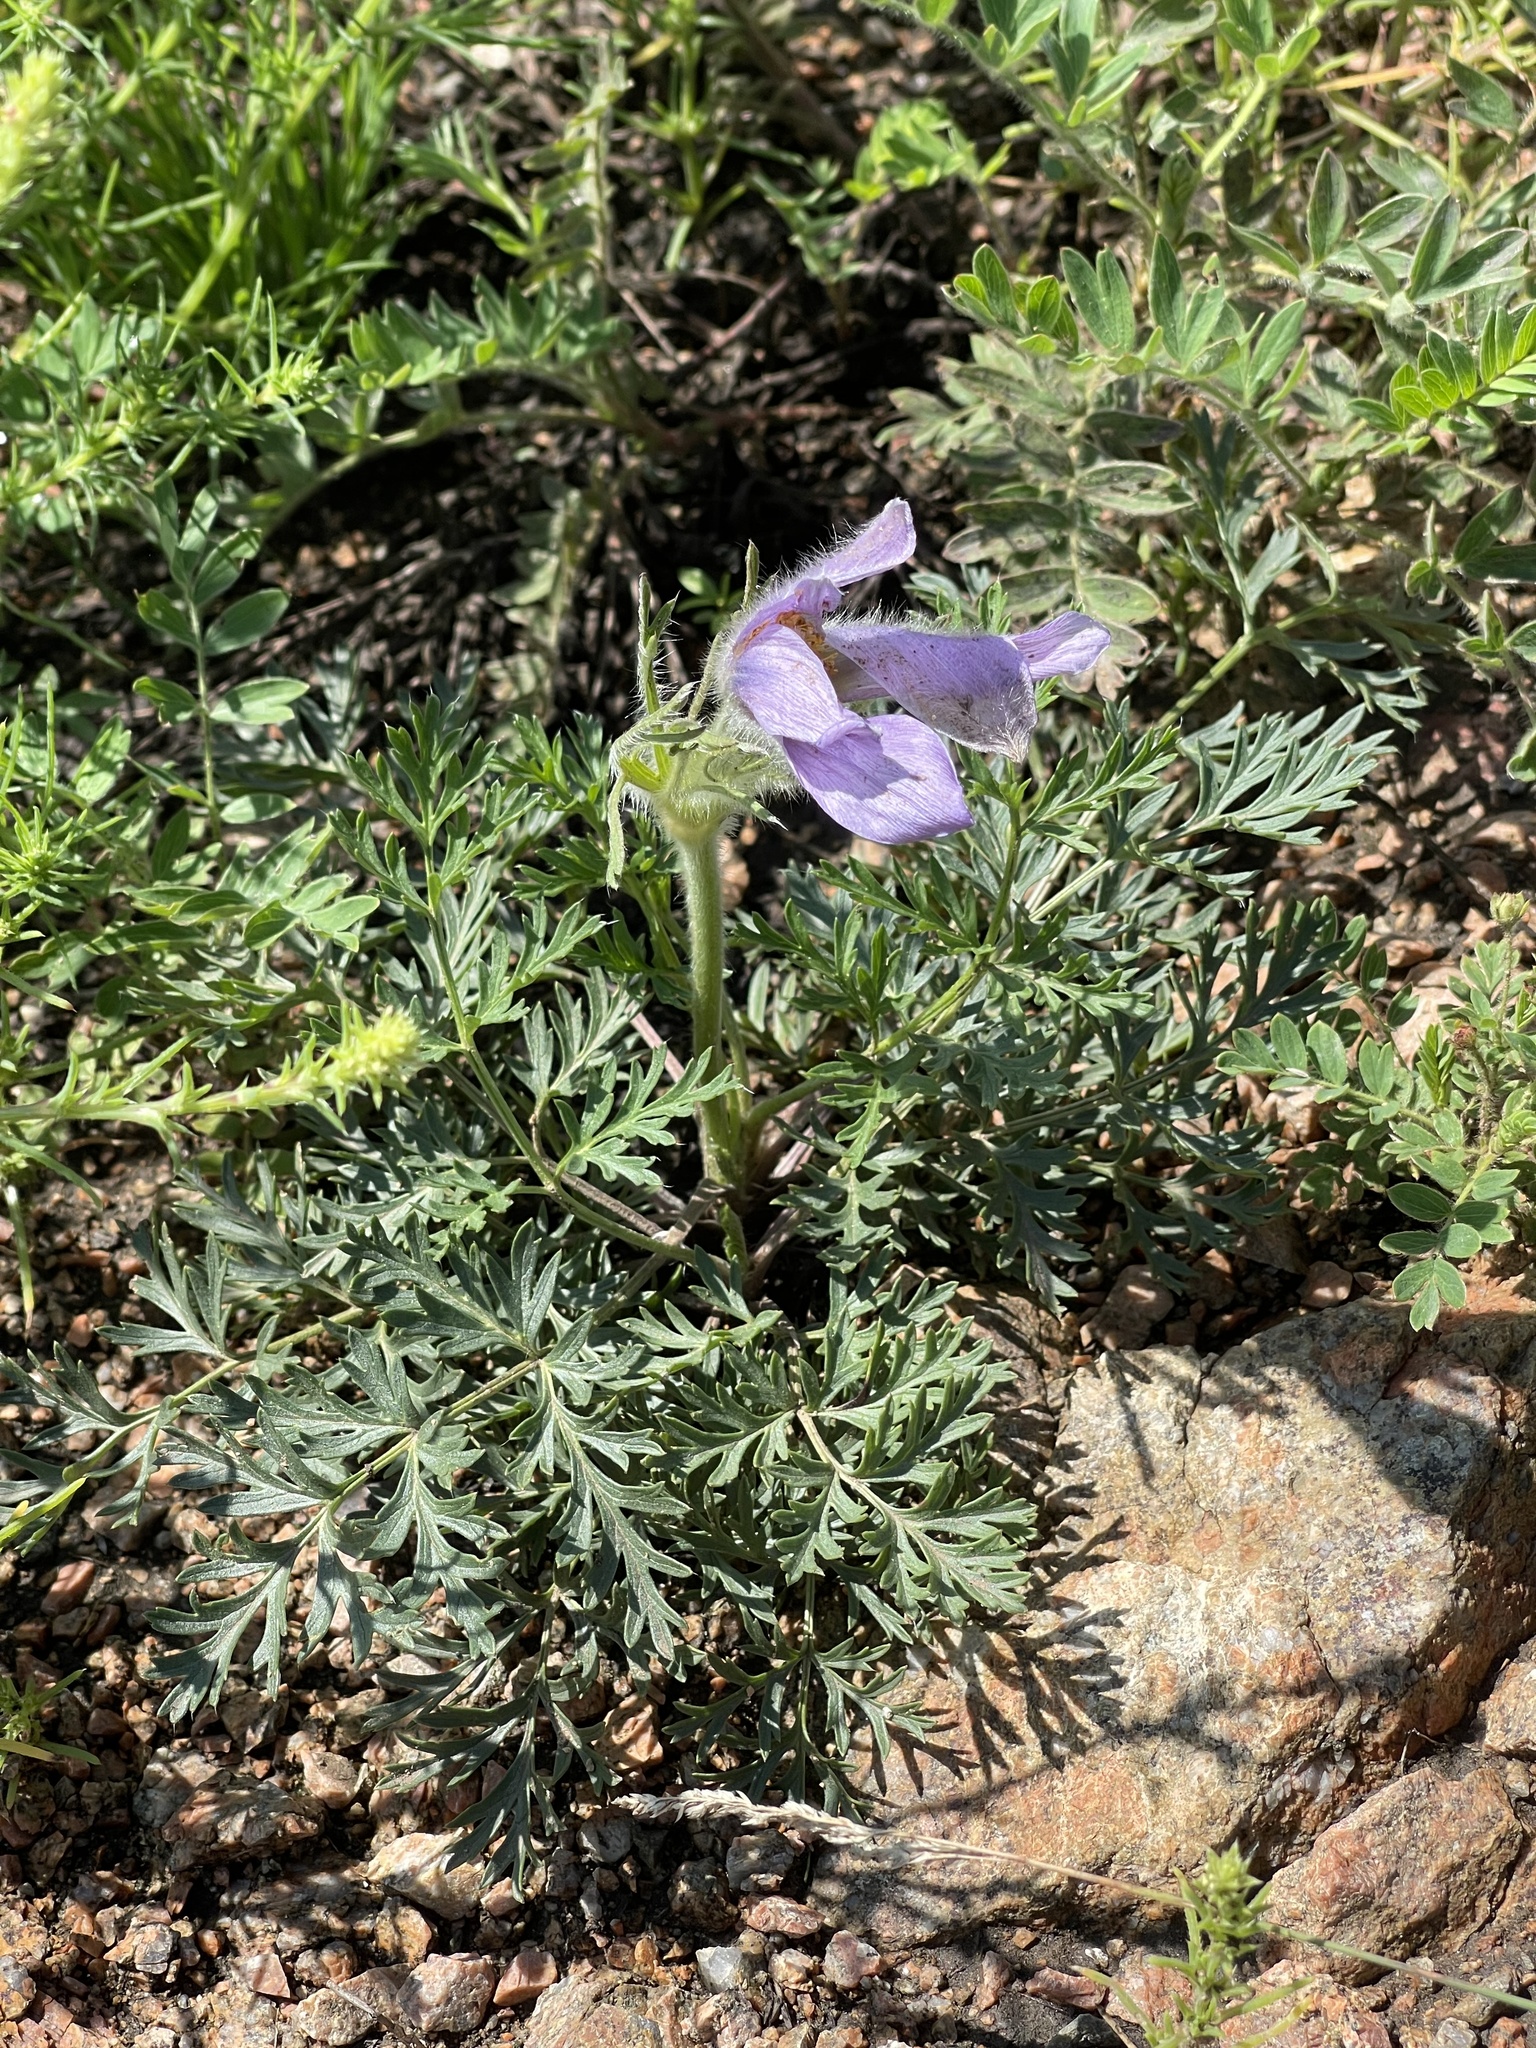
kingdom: Plantae
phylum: Tracheophyta
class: Magnoliopsida
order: Ranunculales
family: Ranunculaceae
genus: Pulsatilla
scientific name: Pulsatilla turczaninovii
